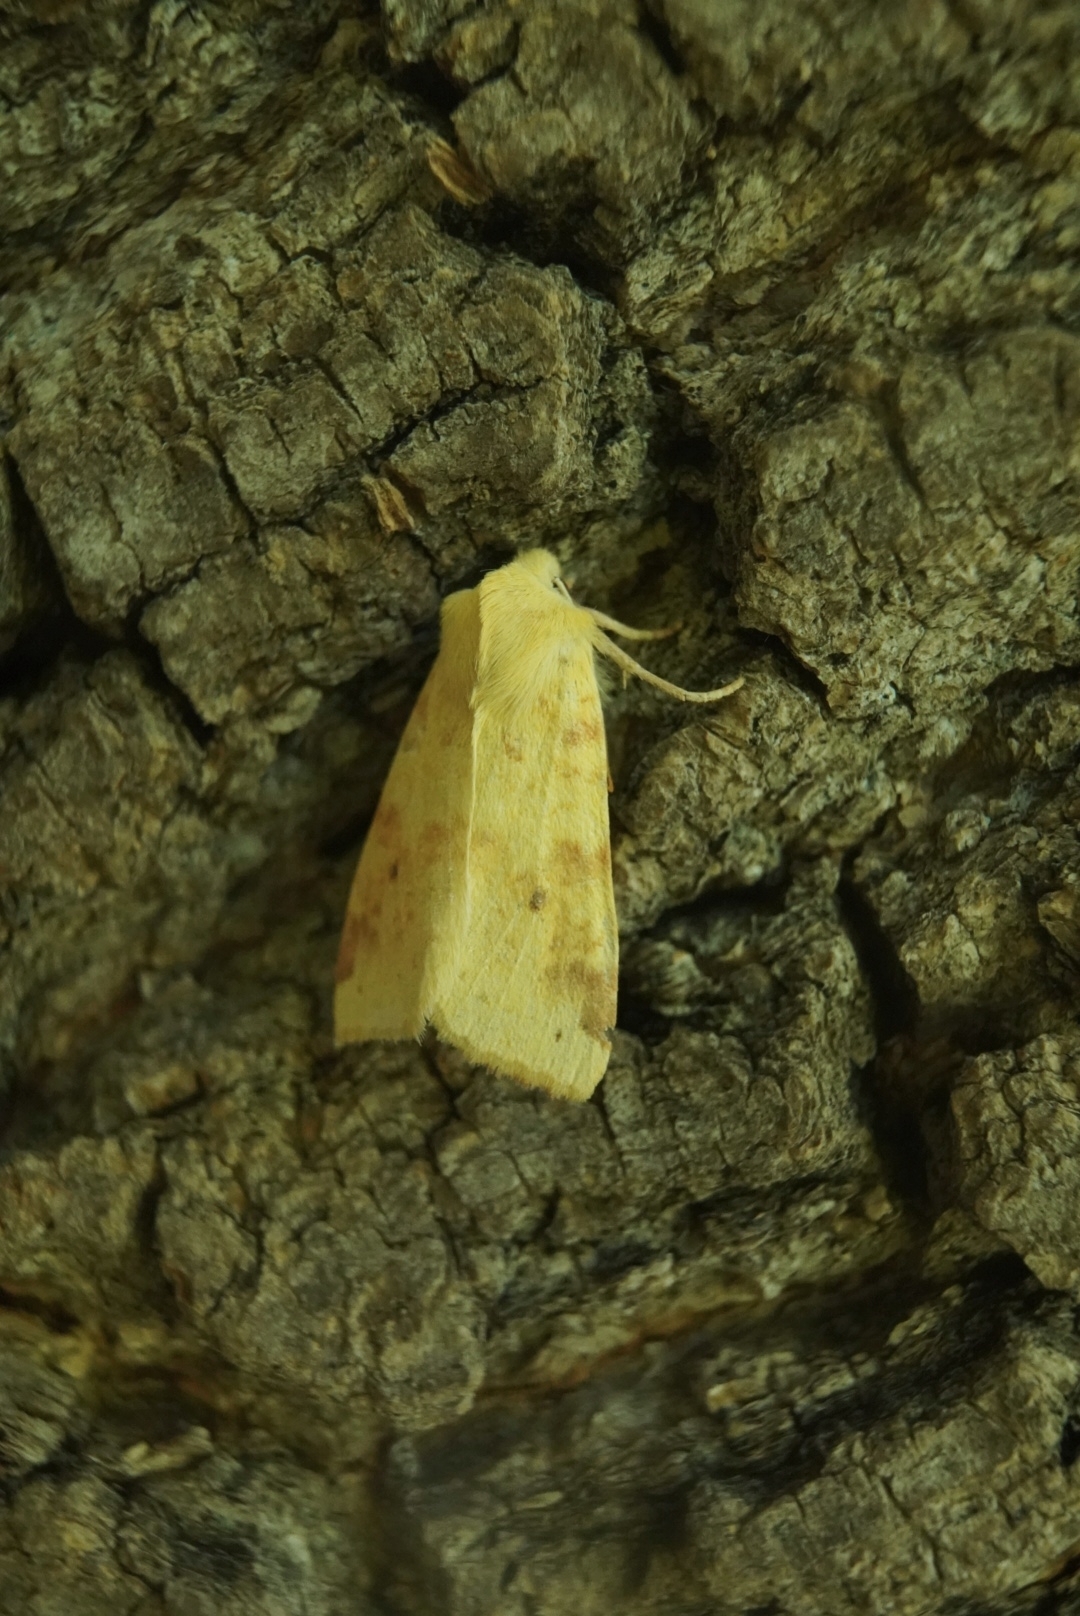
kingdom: Animalia
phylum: Arthropoda
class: Insecta
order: Lepidoptera
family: Noctuidae
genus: Xanthia
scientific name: Xanthia icteritia
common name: The sallow
